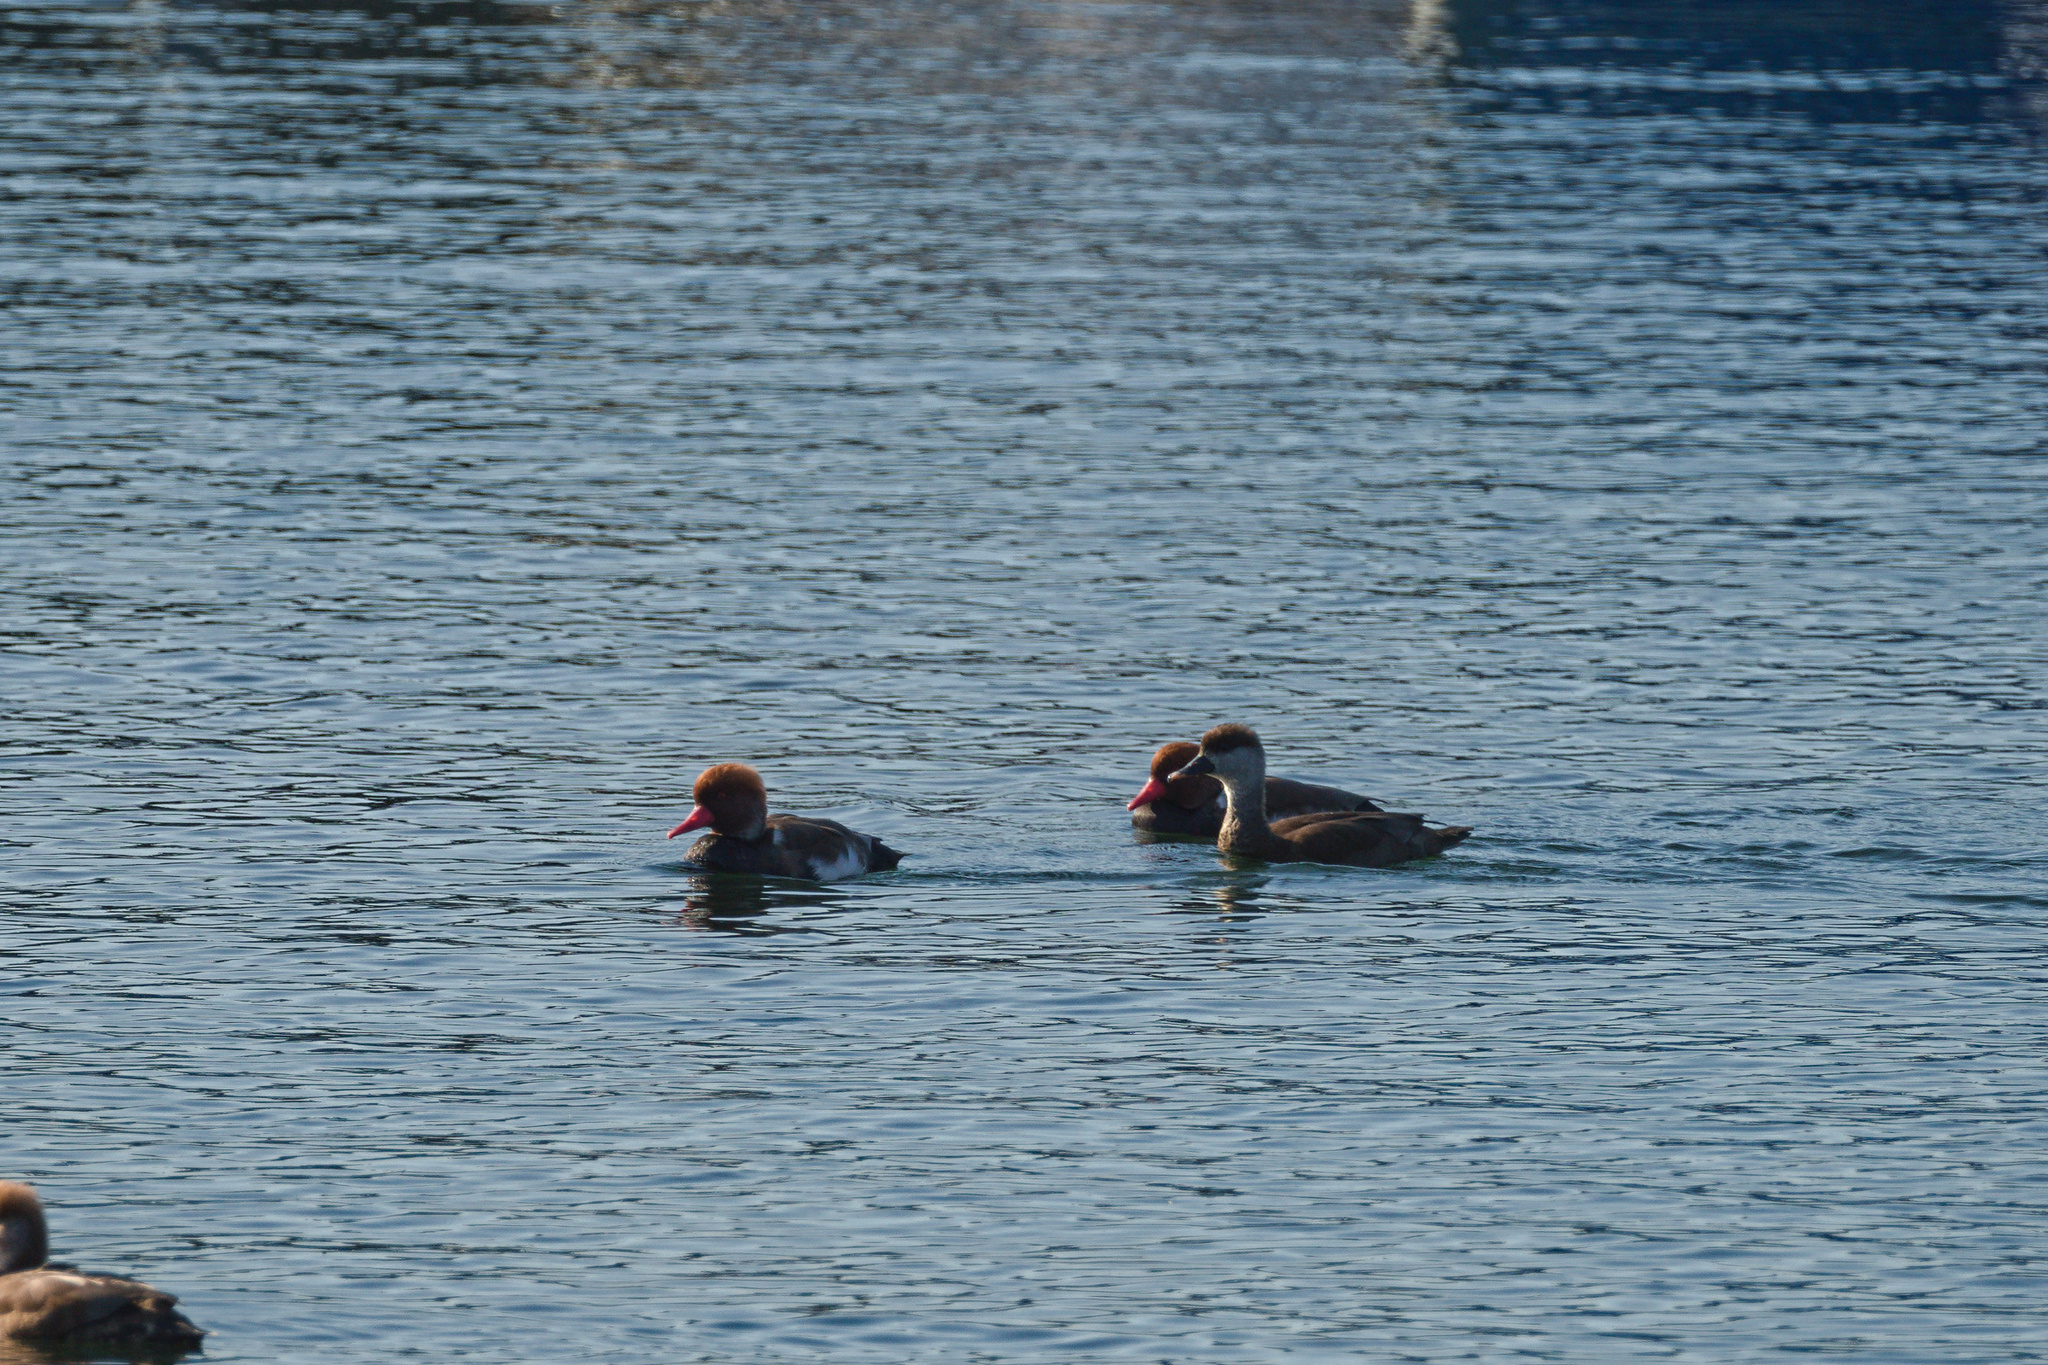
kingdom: Animalia
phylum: Chordata
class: Aves
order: Anseriformes
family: Anatidae
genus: Netta
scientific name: Netta rufina
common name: Red-crested pochard
